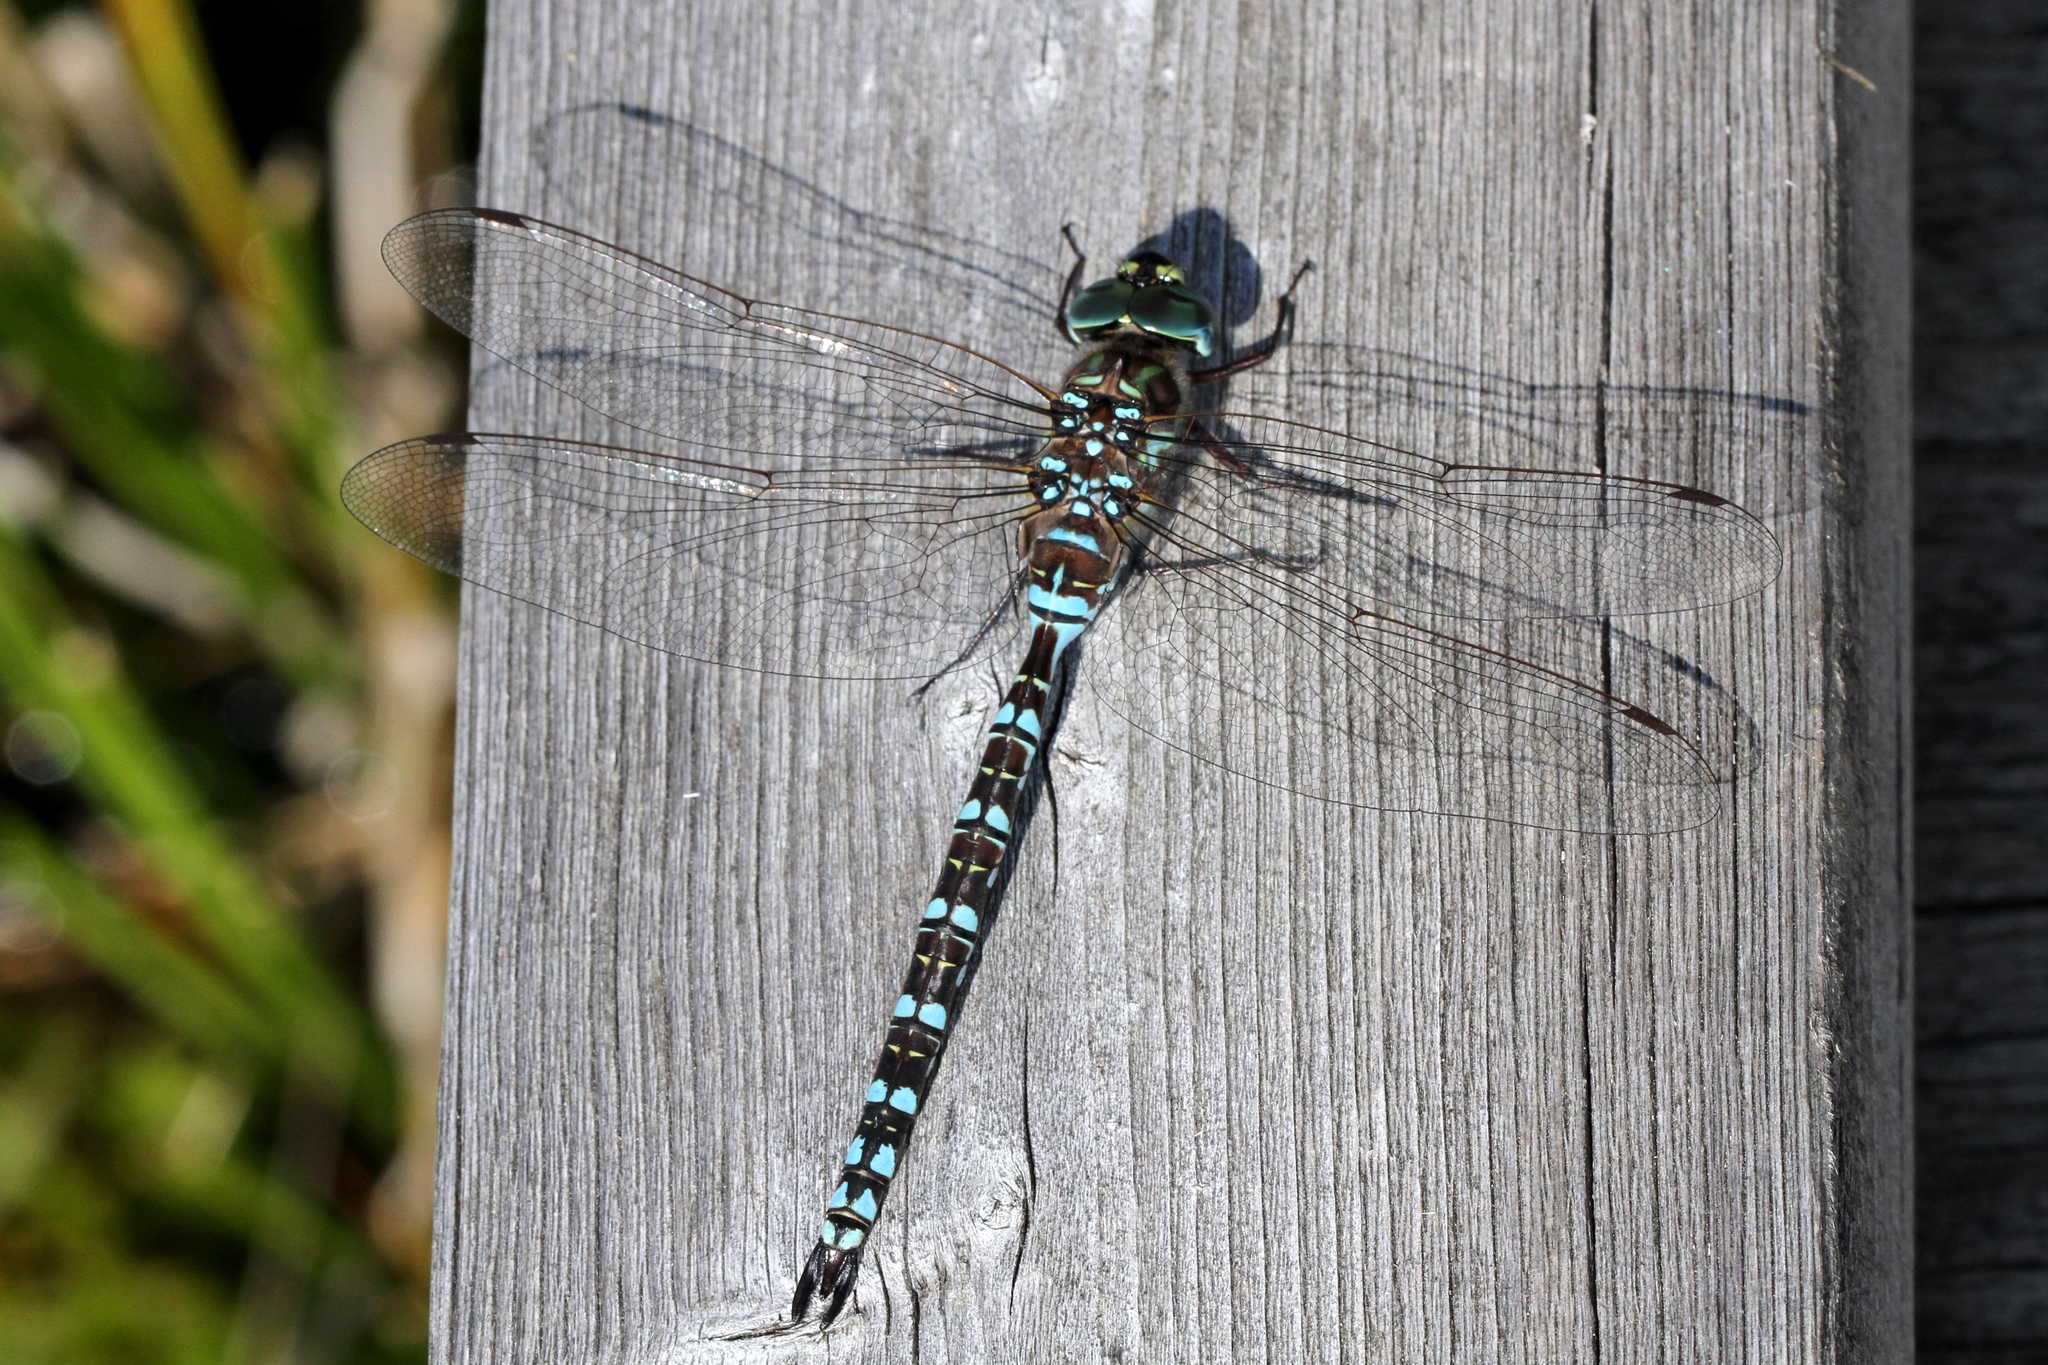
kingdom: Animalia
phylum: Arthropoda
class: Insecta
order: Odonata
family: Aeshnidae
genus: Aeshna
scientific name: Aeshna canadensis
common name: Canada darner
